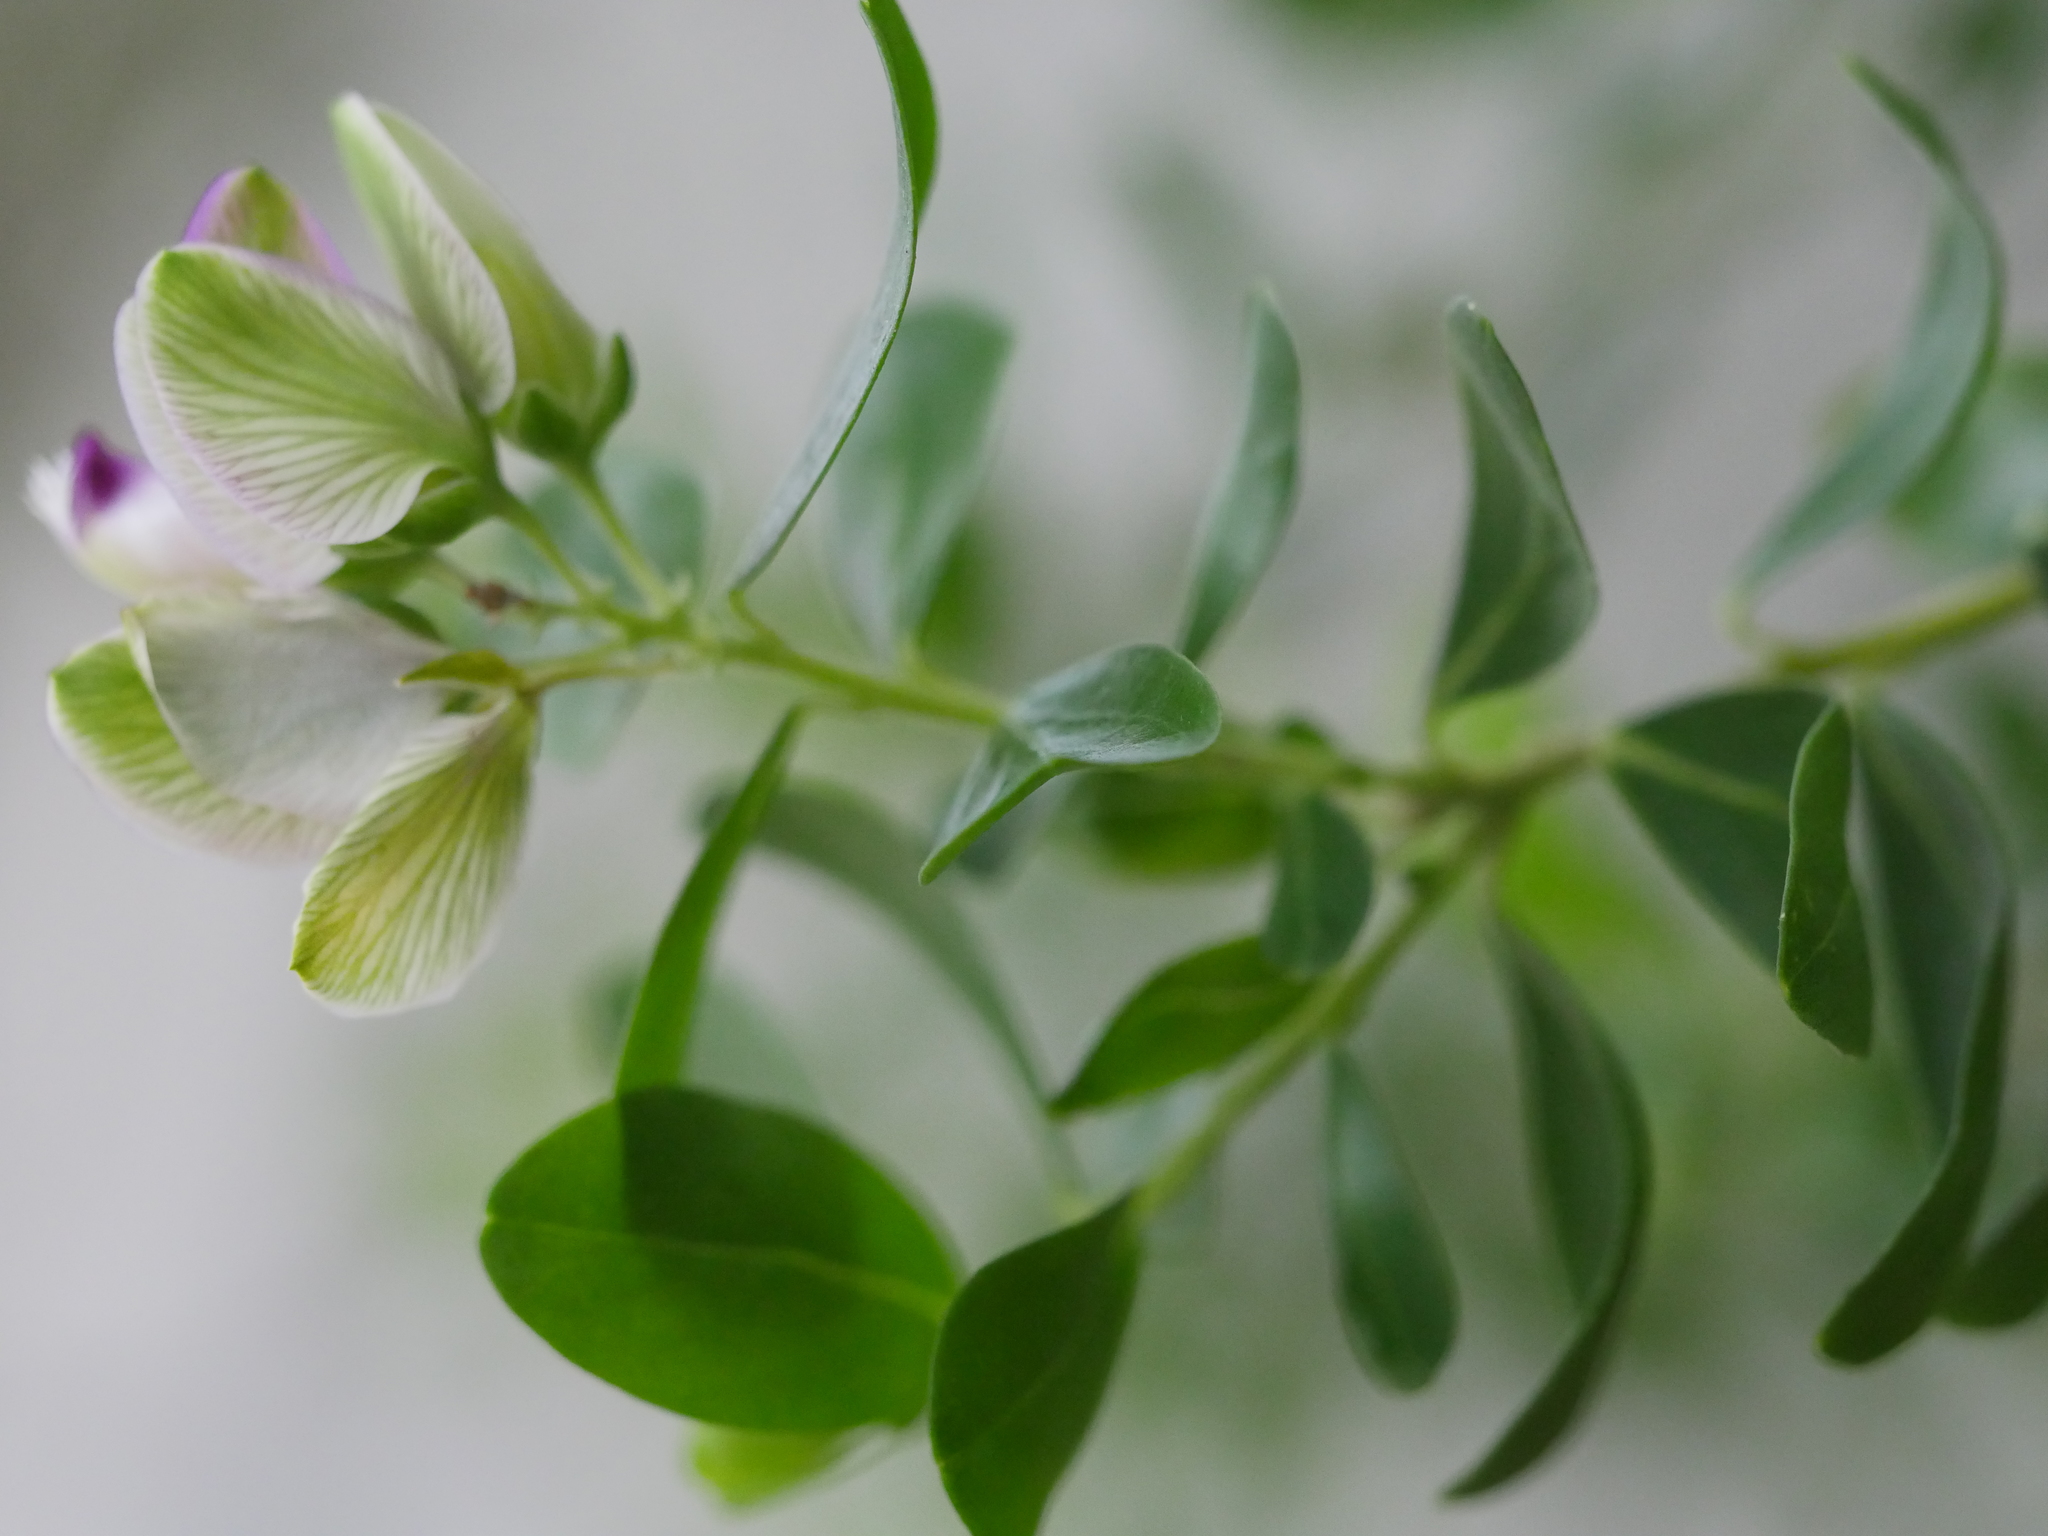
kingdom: Plantae
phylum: Tracheophyta
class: Magnoliopsida
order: Fabales
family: Polygalaceae
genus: Polygala
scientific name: Polygala myrtifolia
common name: Myrtle-leaf milkwort
